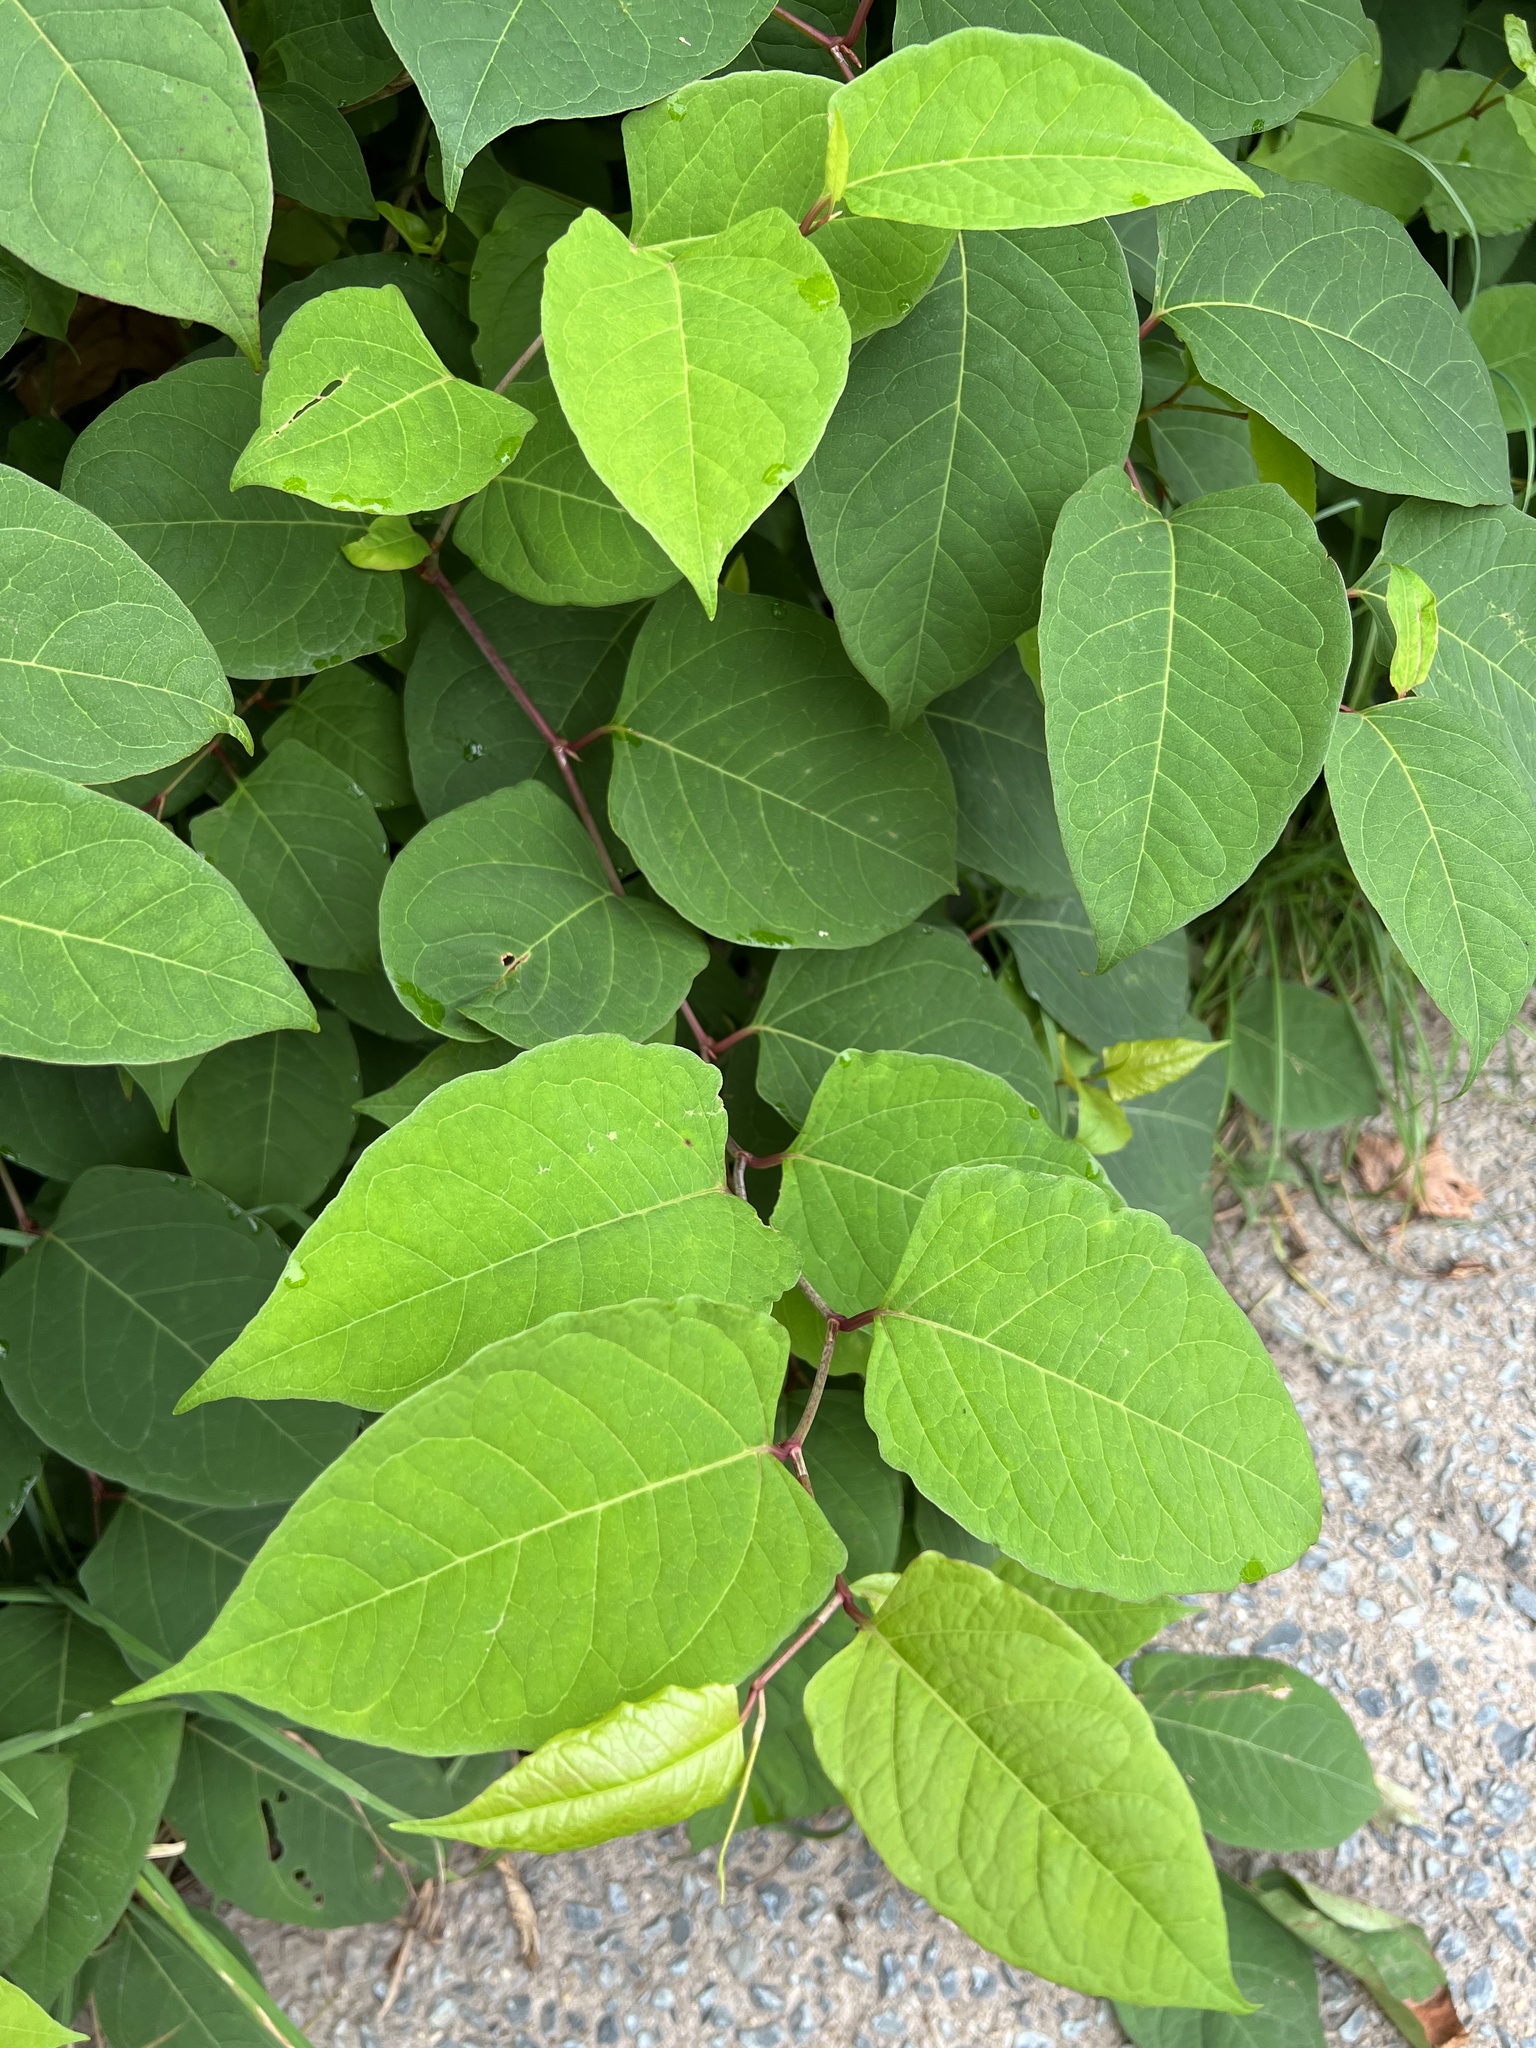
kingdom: Plantae
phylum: Tracheophyta
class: Magnoliopsida
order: Caryophyllales
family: Polygonaceae
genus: Reynoutria
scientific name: Reynoutria japonica
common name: Japanese knotweed
